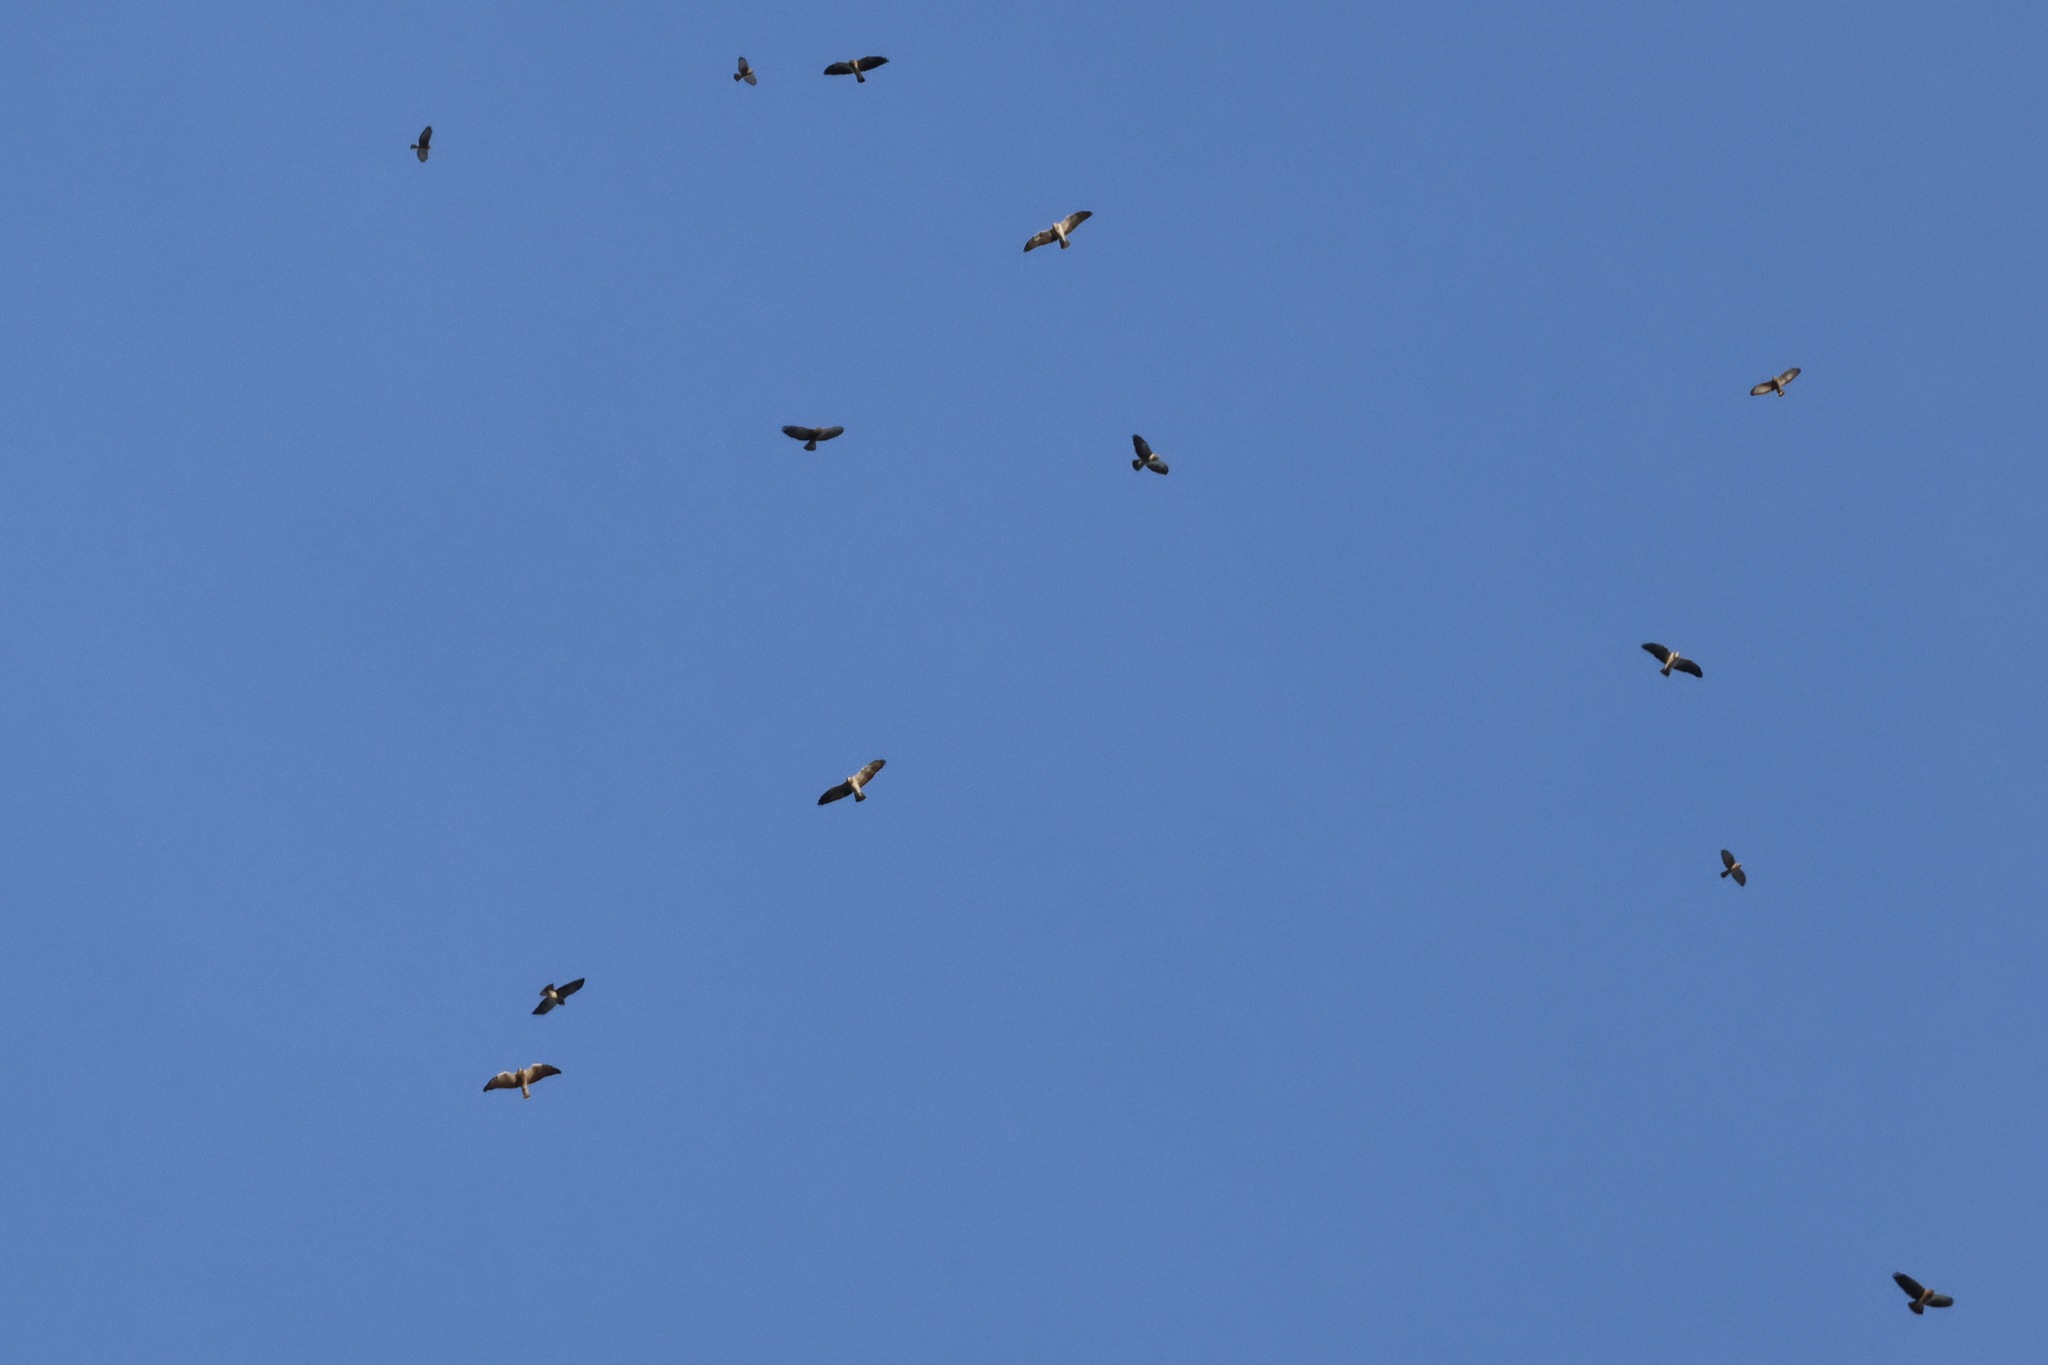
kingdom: Animalia
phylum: Chordata
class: Aves
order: Accipitriformes
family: Accipitridae
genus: Buteo
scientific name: Buteo swainsoni
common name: Swainson's hawk
